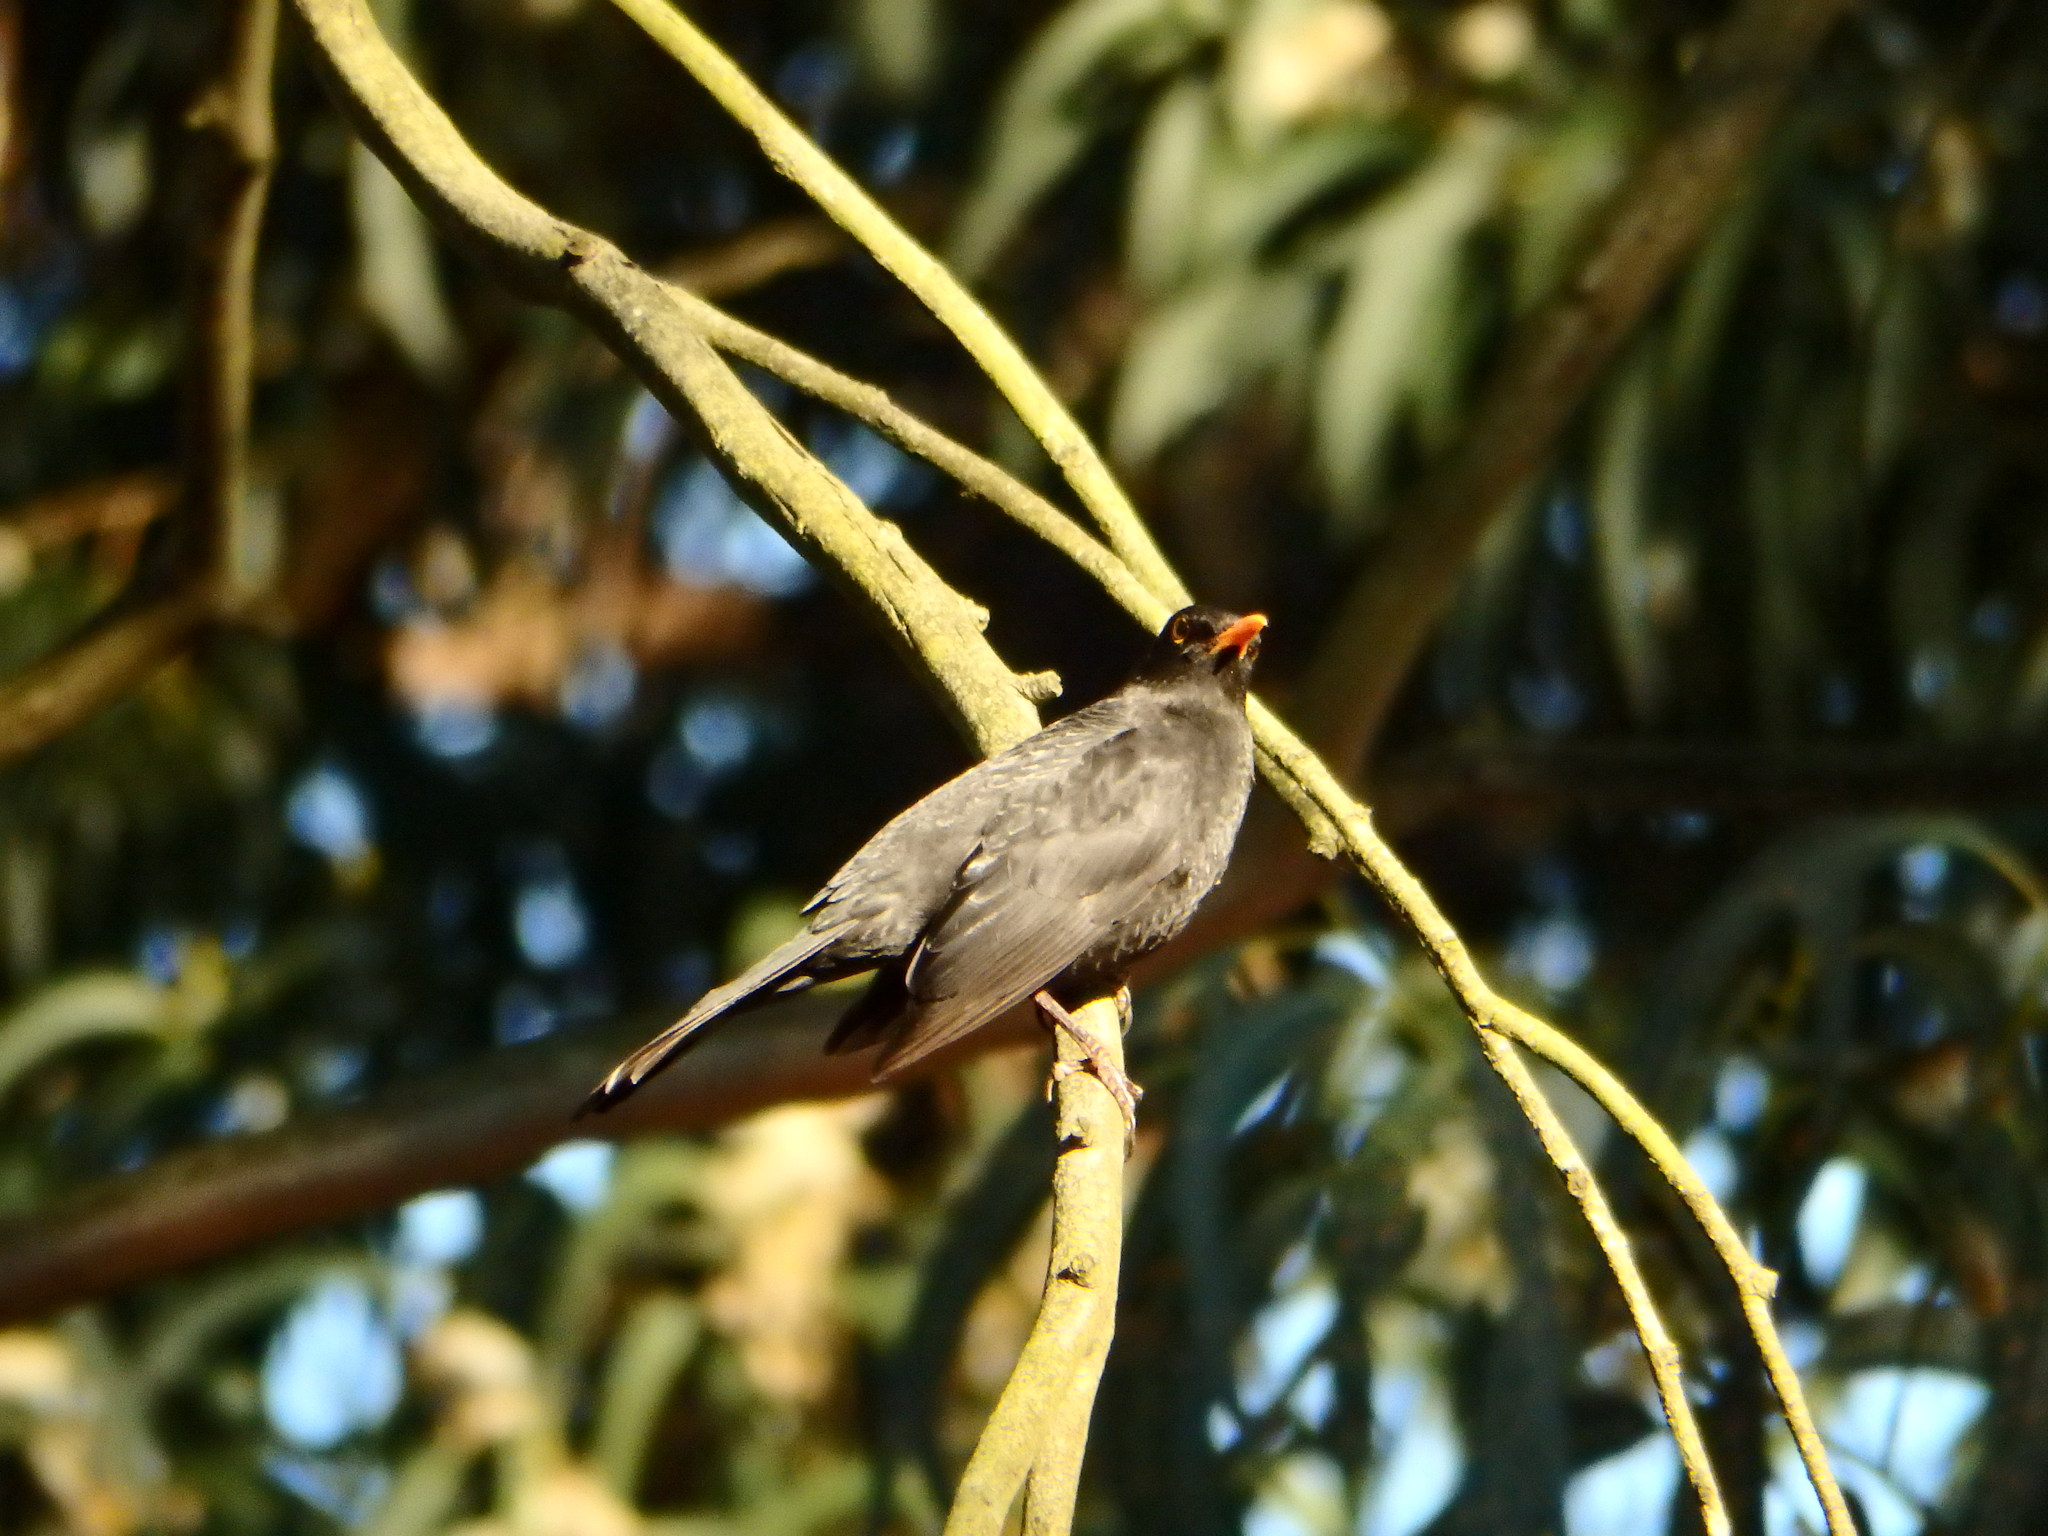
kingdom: Animalia
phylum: Chordata
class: Aves
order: Passeriformes
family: Turdidae
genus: Turdus
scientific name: Turdus merula
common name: Common blackbird
